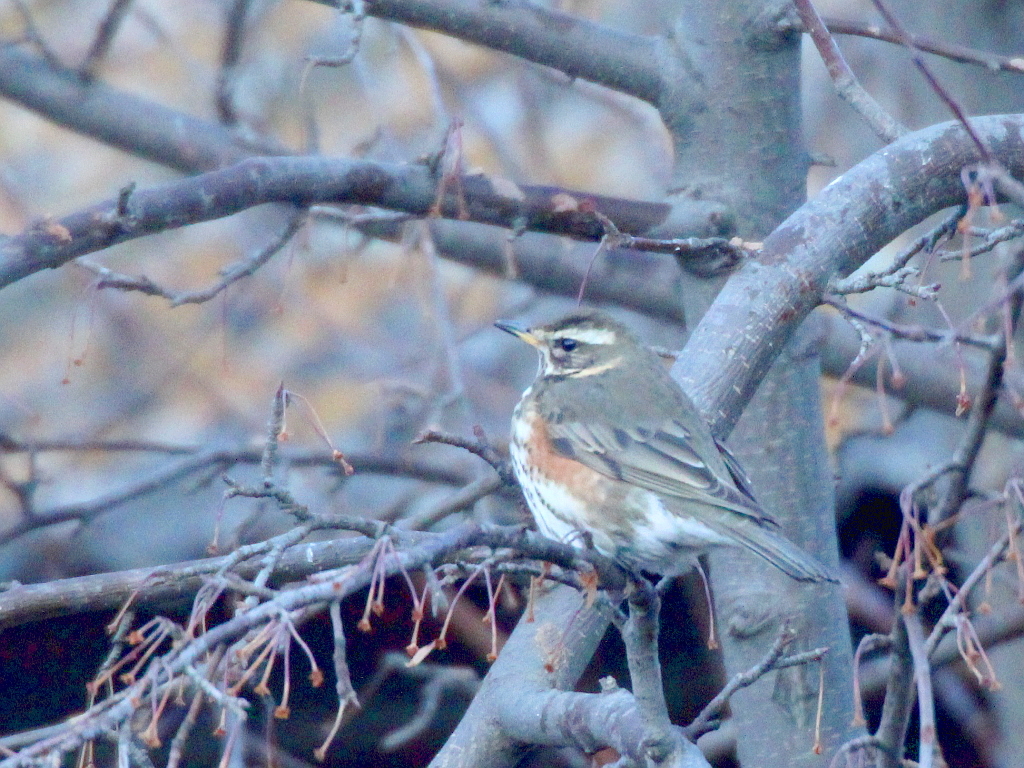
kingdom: Animalia
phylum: Chordata
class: Aves
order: Passeriformes
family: Turdidae
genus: Turdus
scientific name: Turdus iliacus
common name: Redwing
